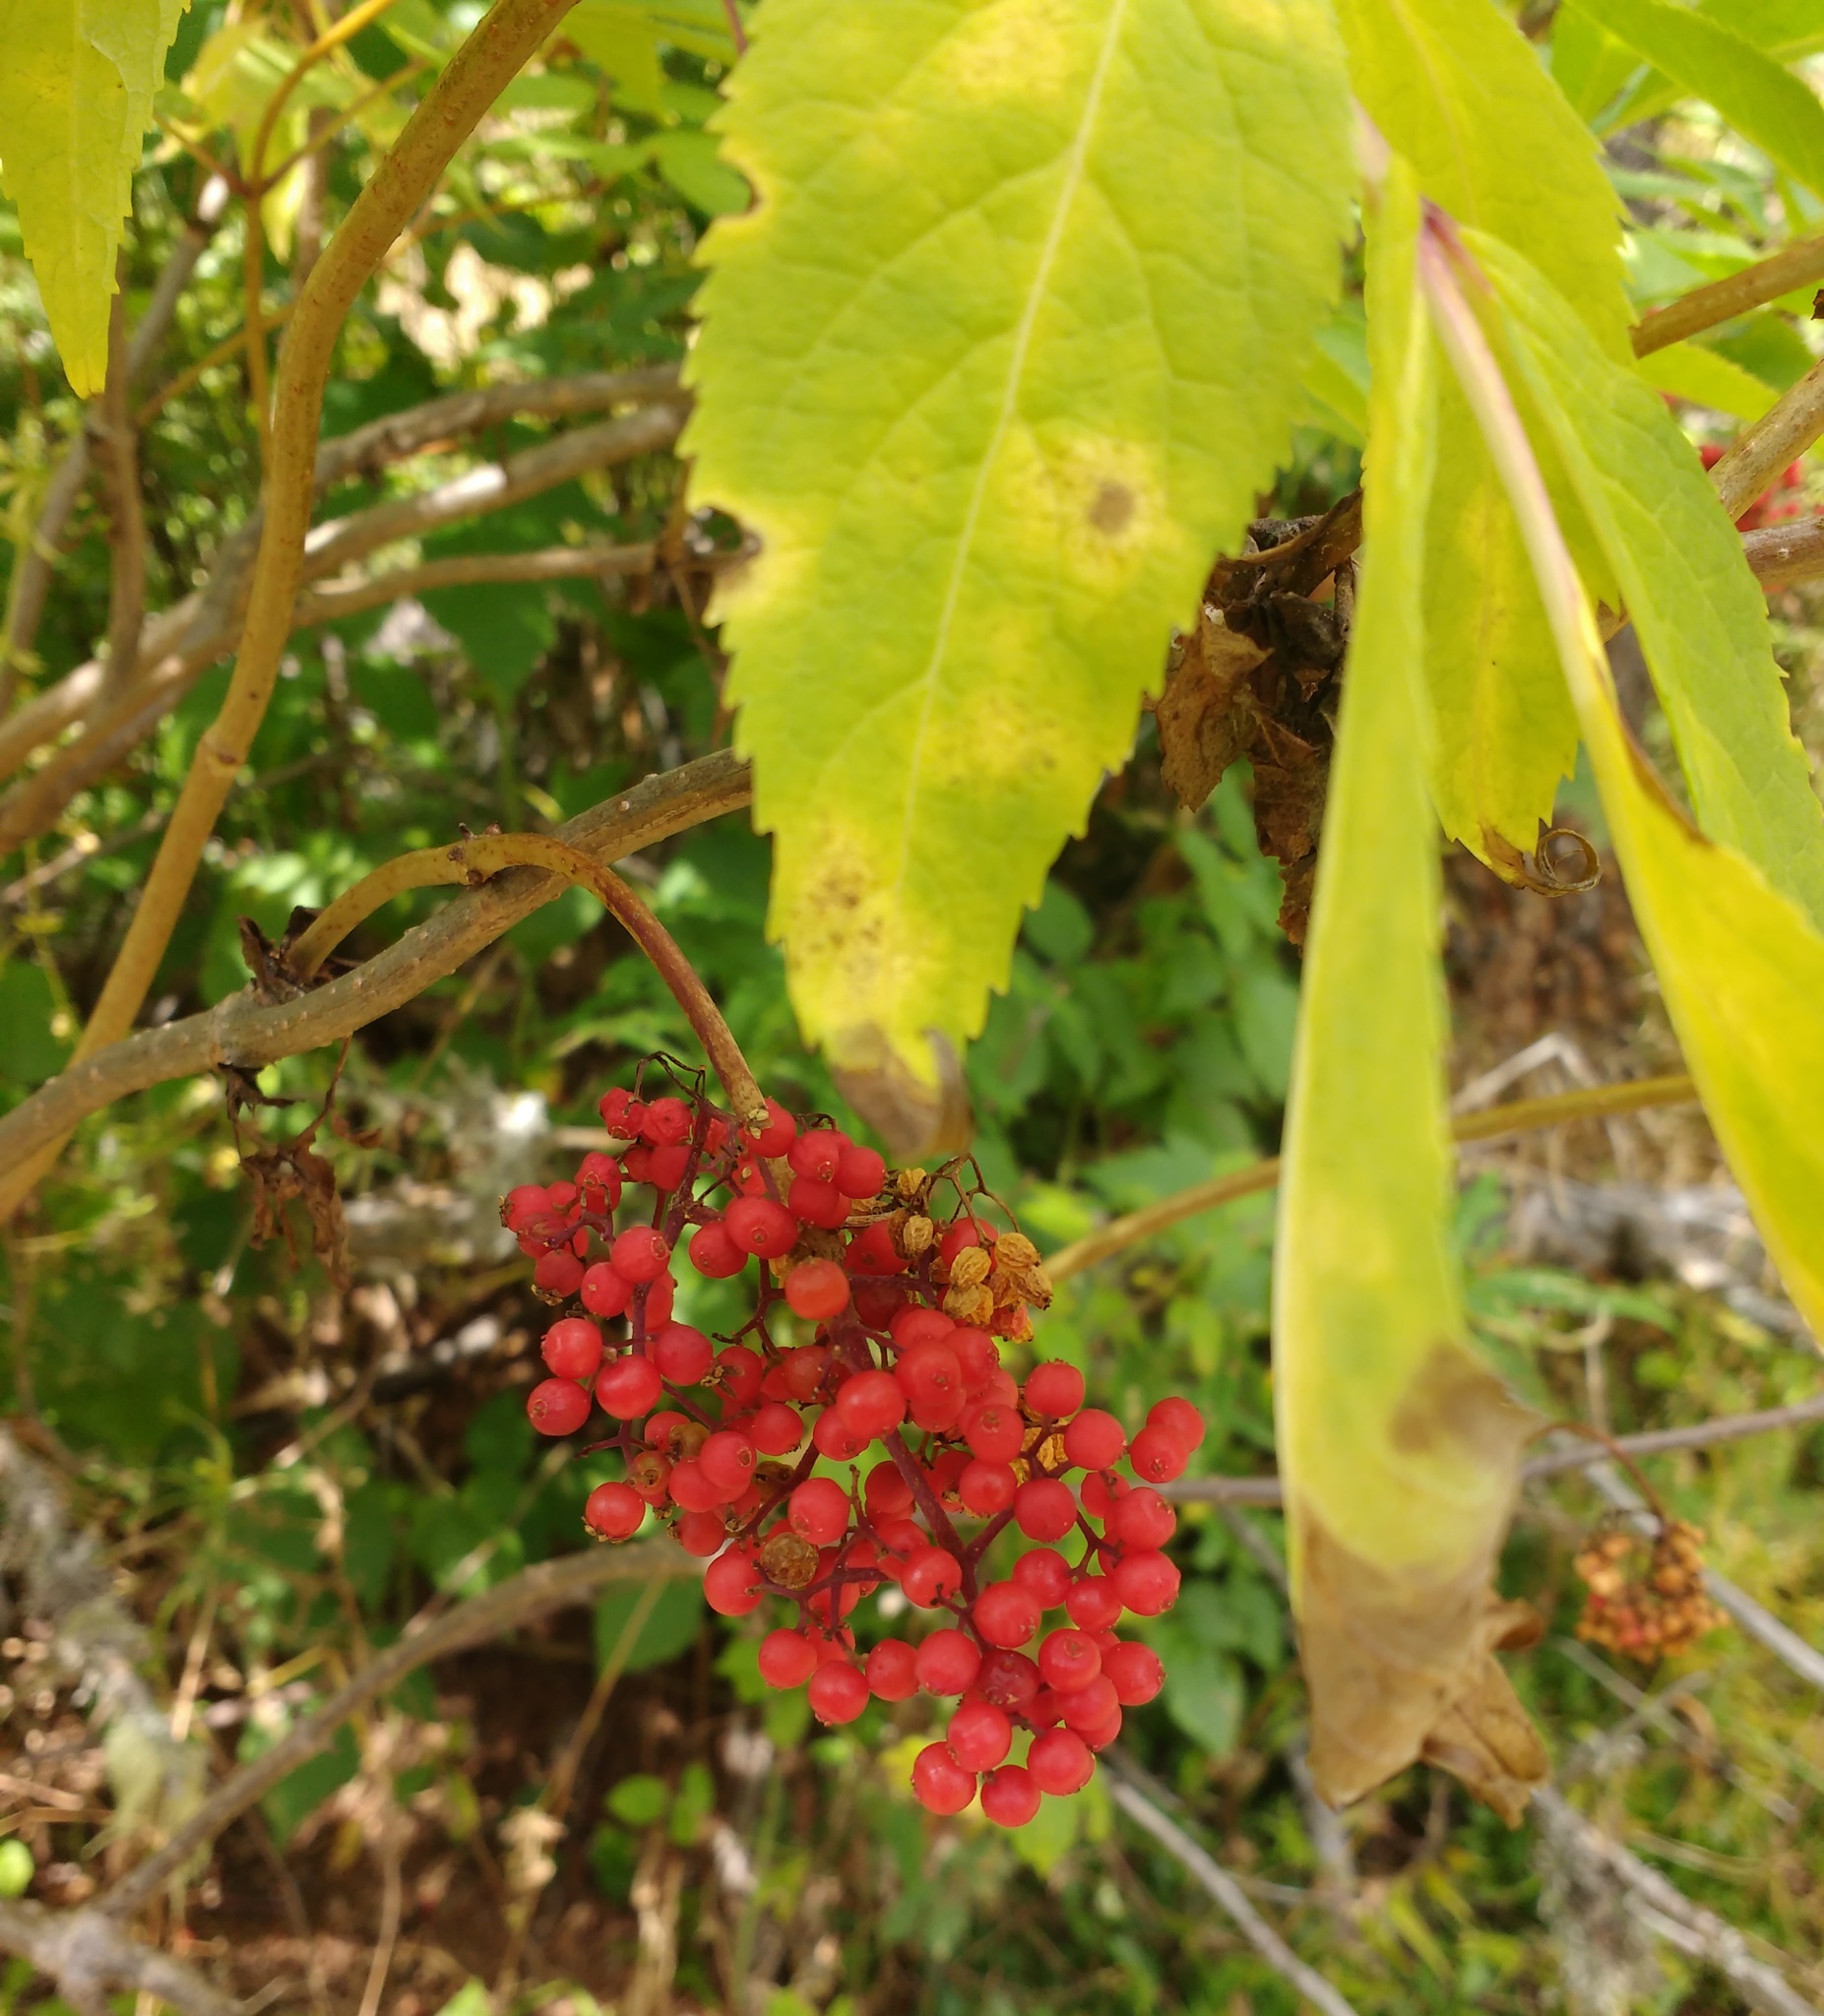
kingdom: Plantae
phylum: Tracheophyta
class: Magnoliopsida
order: Dipsacales
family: Viburnaceae
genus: Sambucus
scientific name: Sambucus racemosa
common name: Red-berried elder
